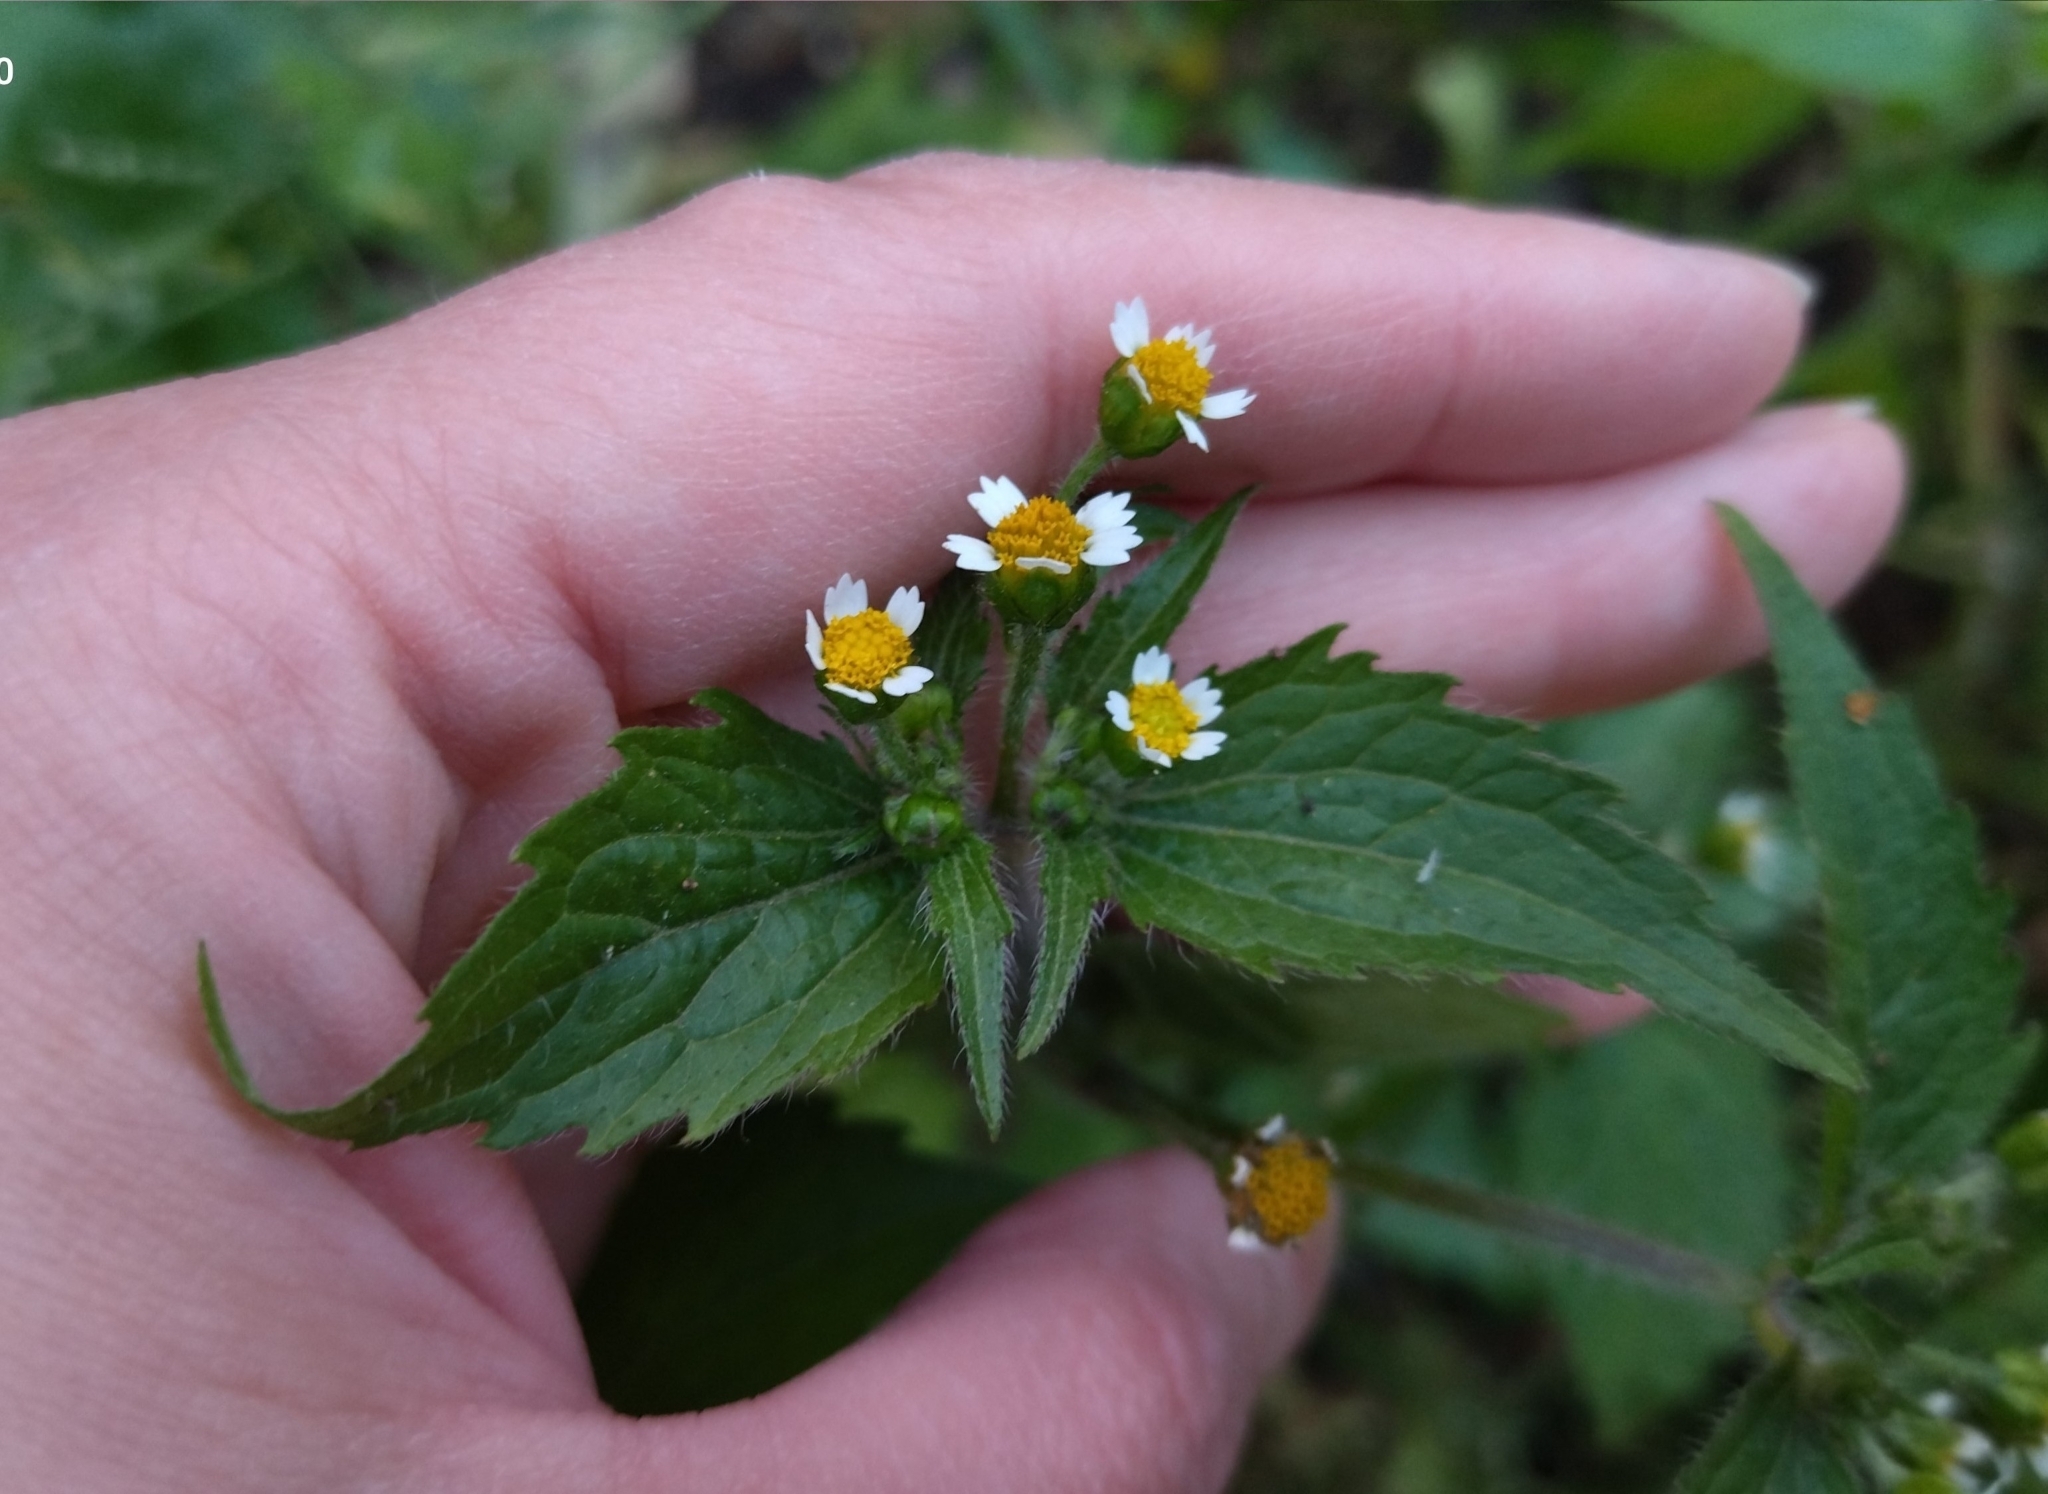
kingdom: Plantae
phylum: Tracheophyta
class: Magnoliopsida
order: Asterales
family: Asteraceae
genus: Galinsoga
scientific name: Galinsoga quadriradiata
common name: Shaggy soldier
